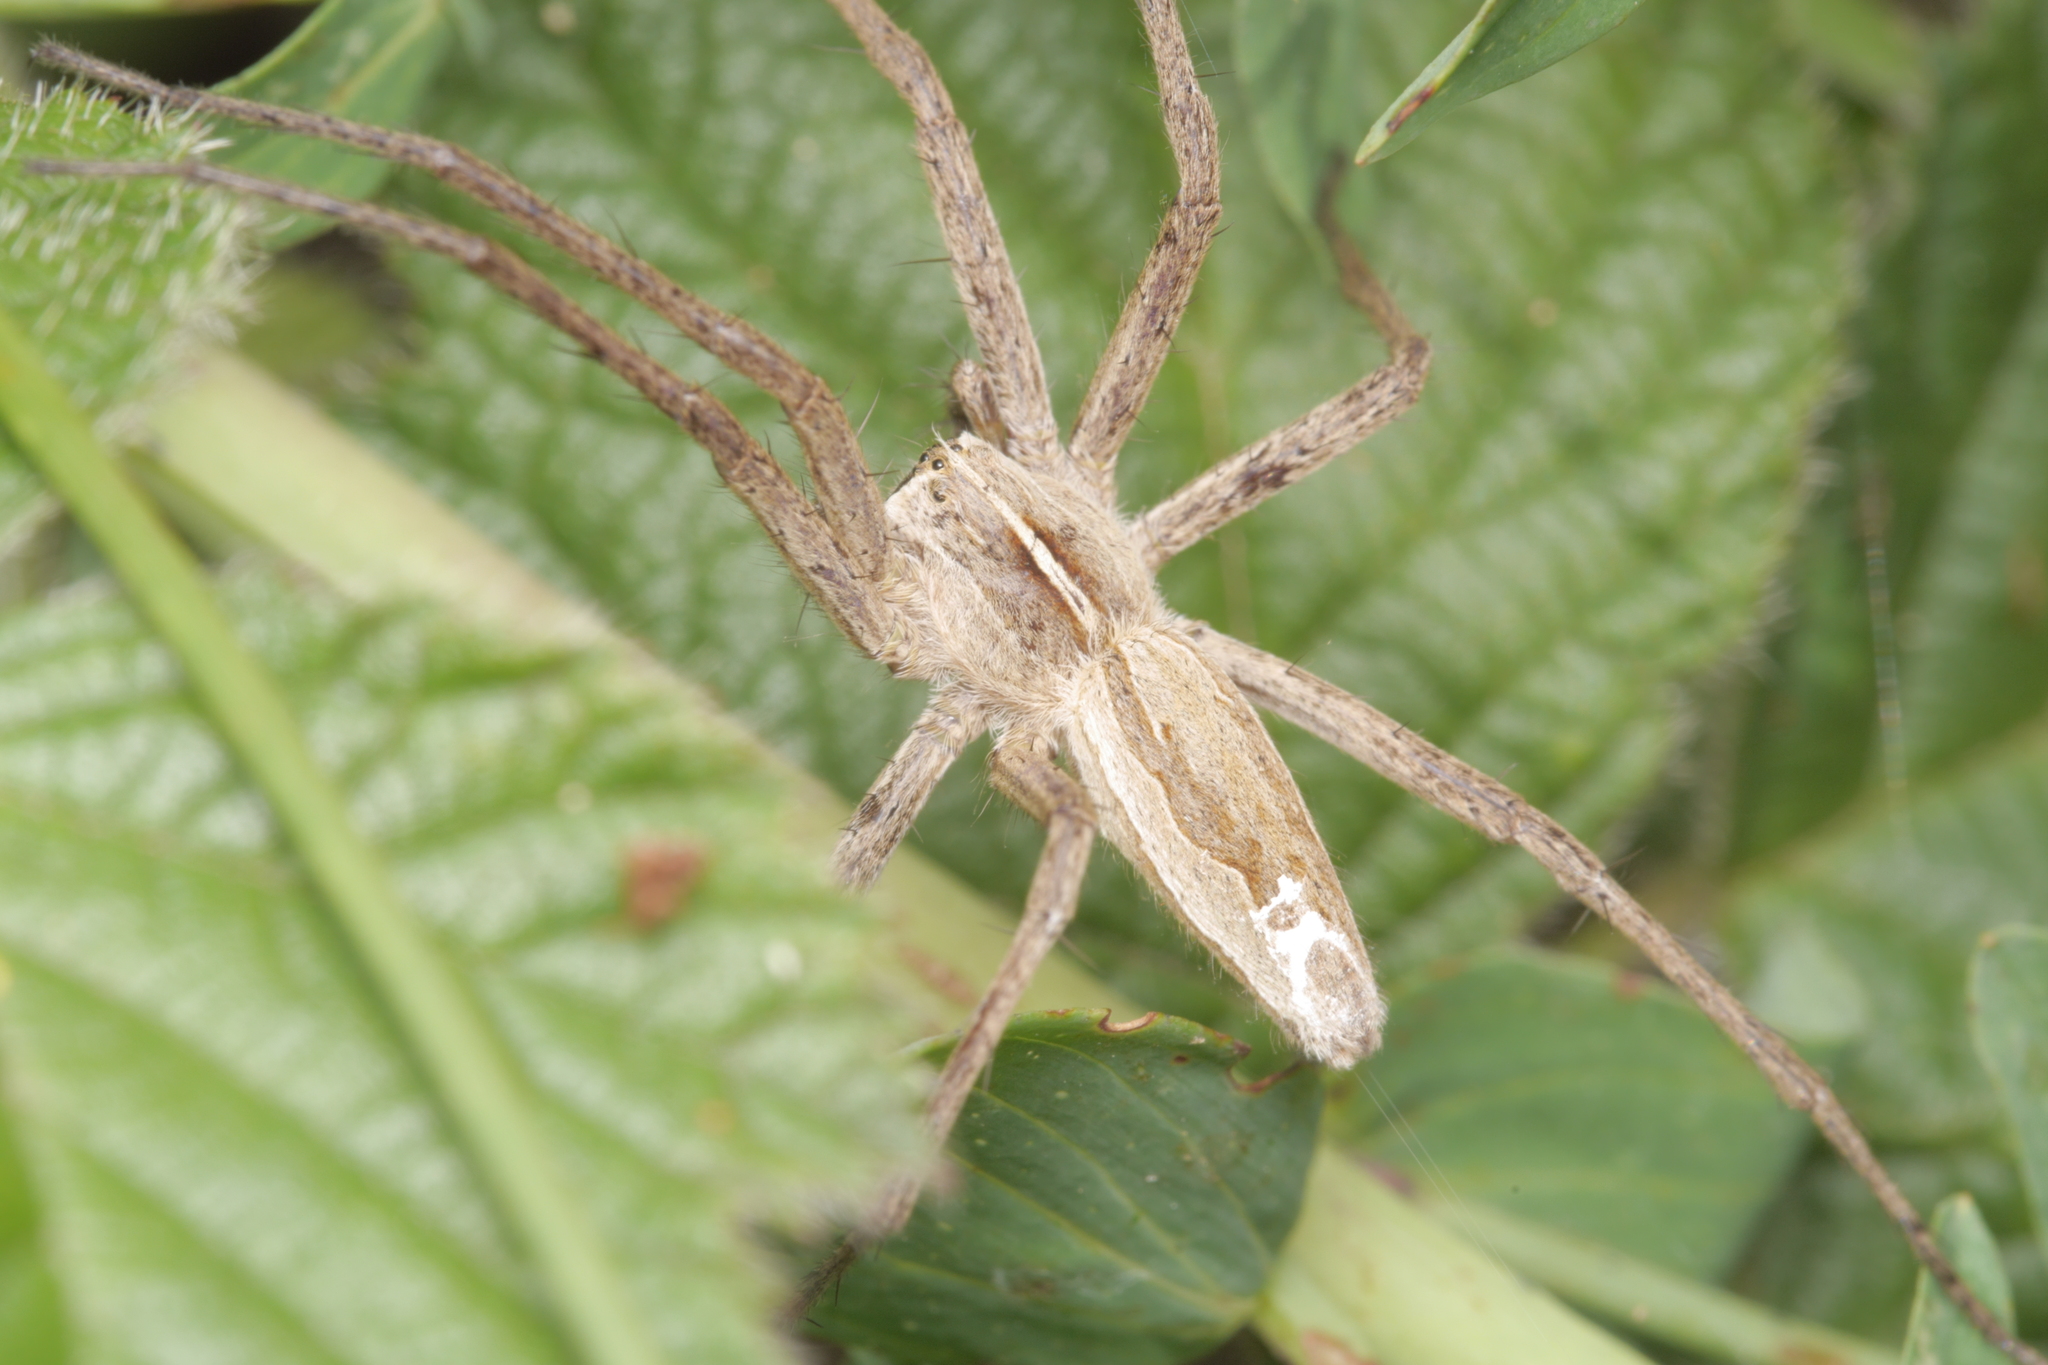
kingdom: Animalia
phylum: Arthropoda
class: Arachnida
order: Araneae
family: Pisauridae
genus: Pisaura
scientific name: Pisaura mirabilis
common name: Tent spider
